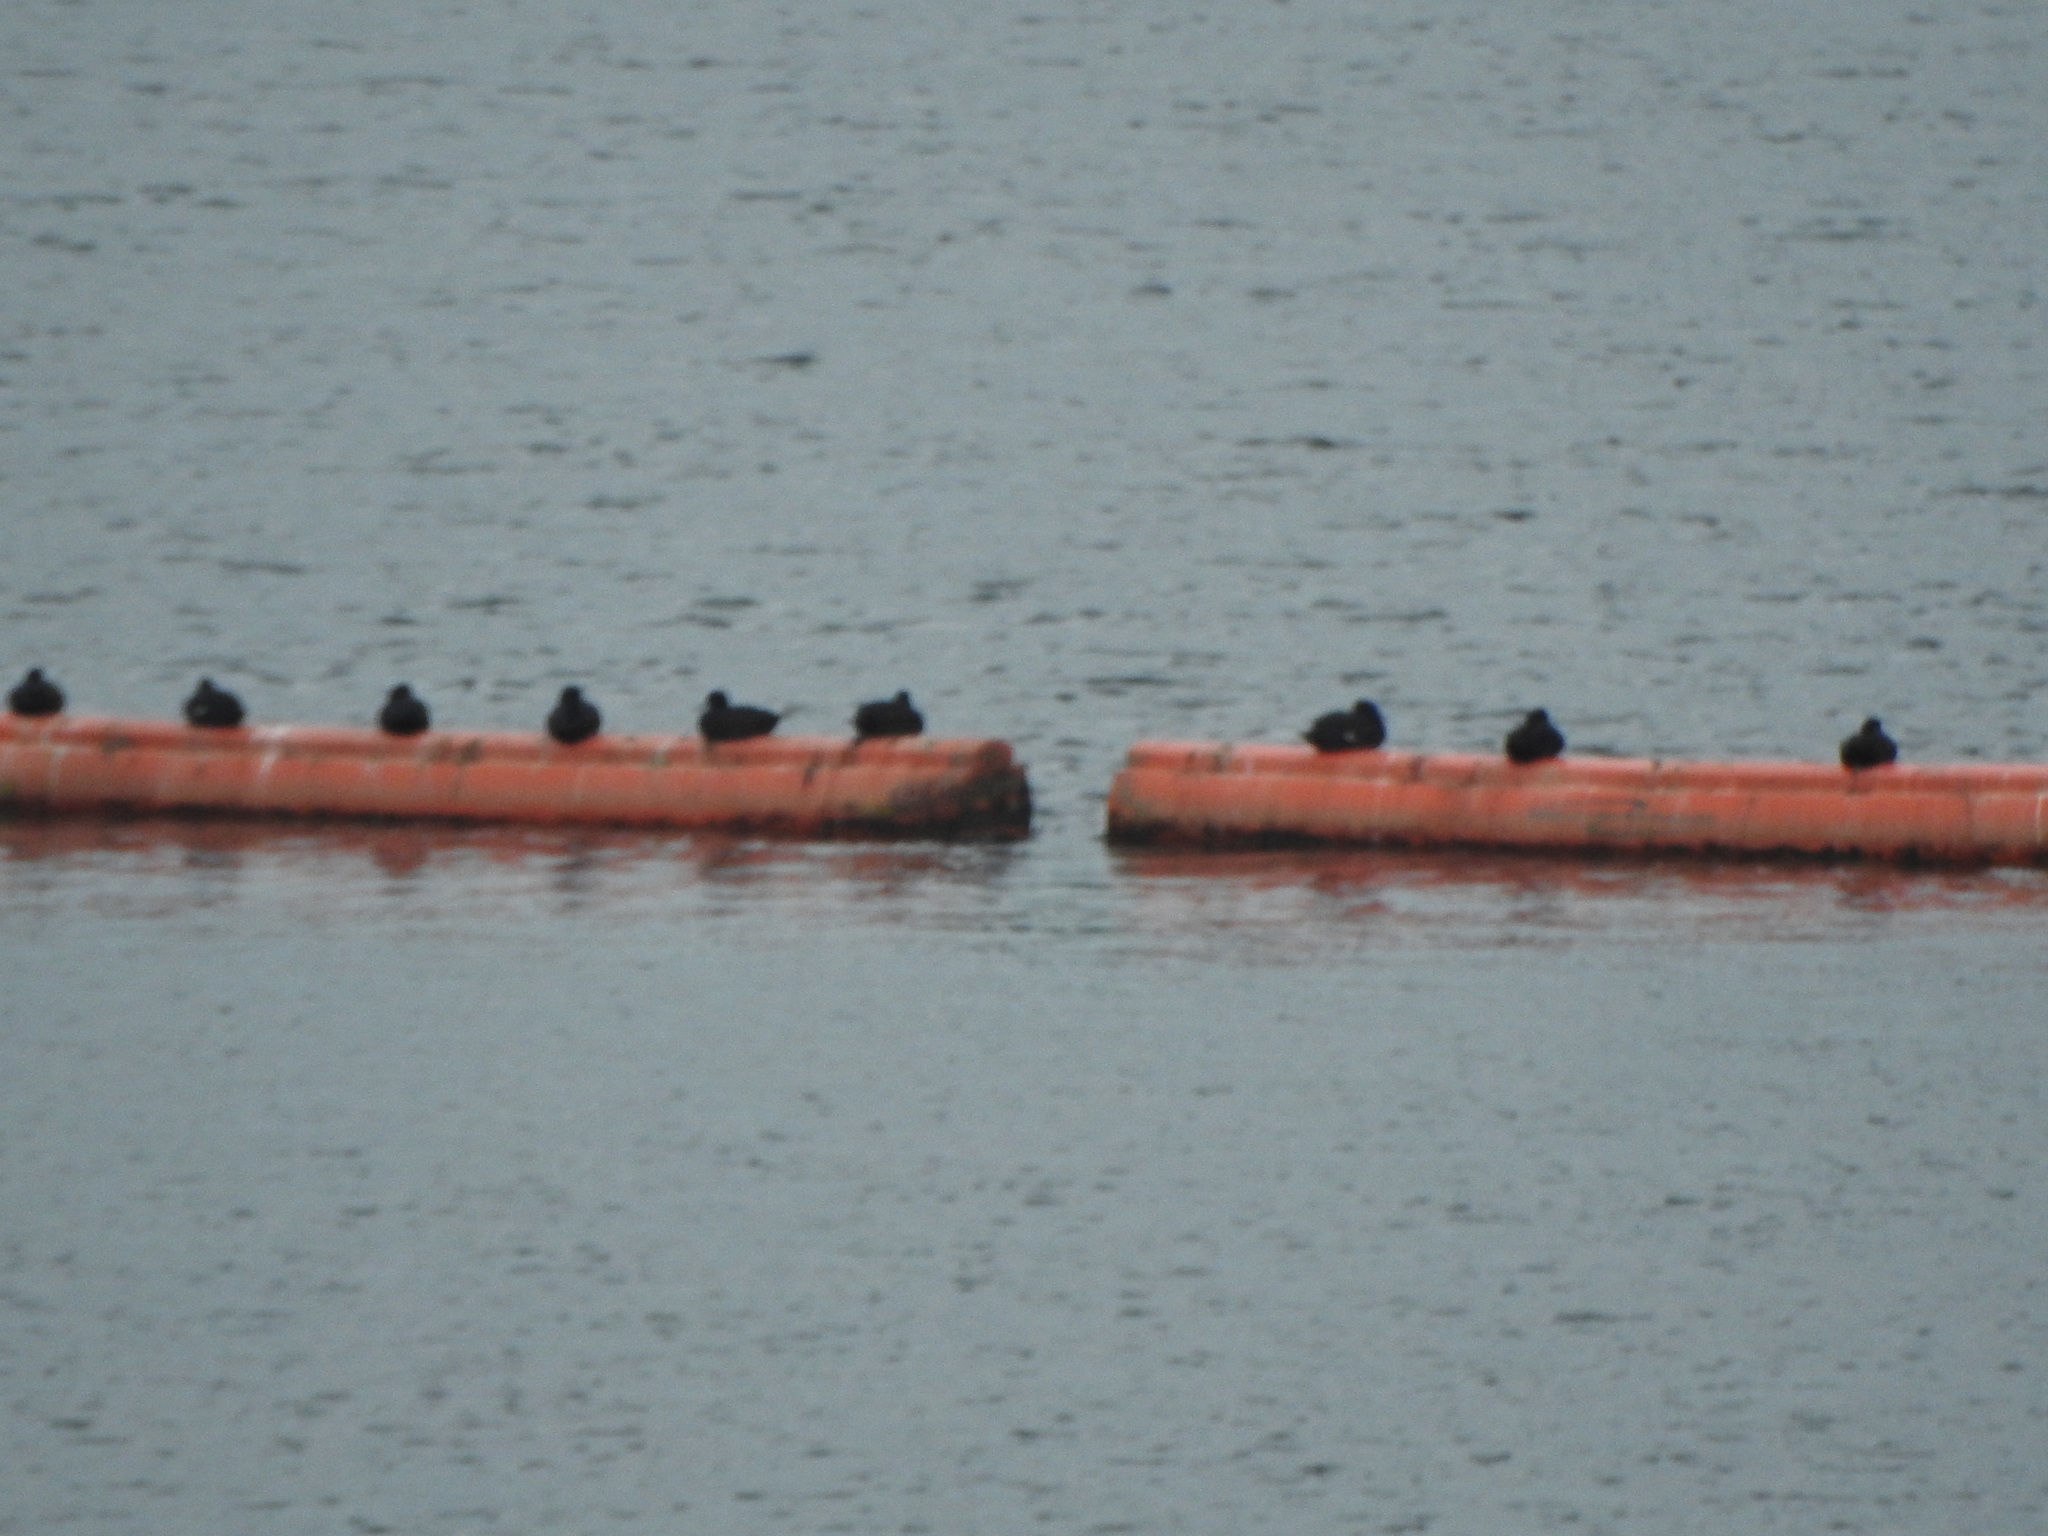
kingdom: Animalia
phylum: Chordata
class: Aves
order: Anseriformes
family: Anatidae
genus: Aythya
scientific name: Aythya novaeseelandiae
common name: New zealand scaup
